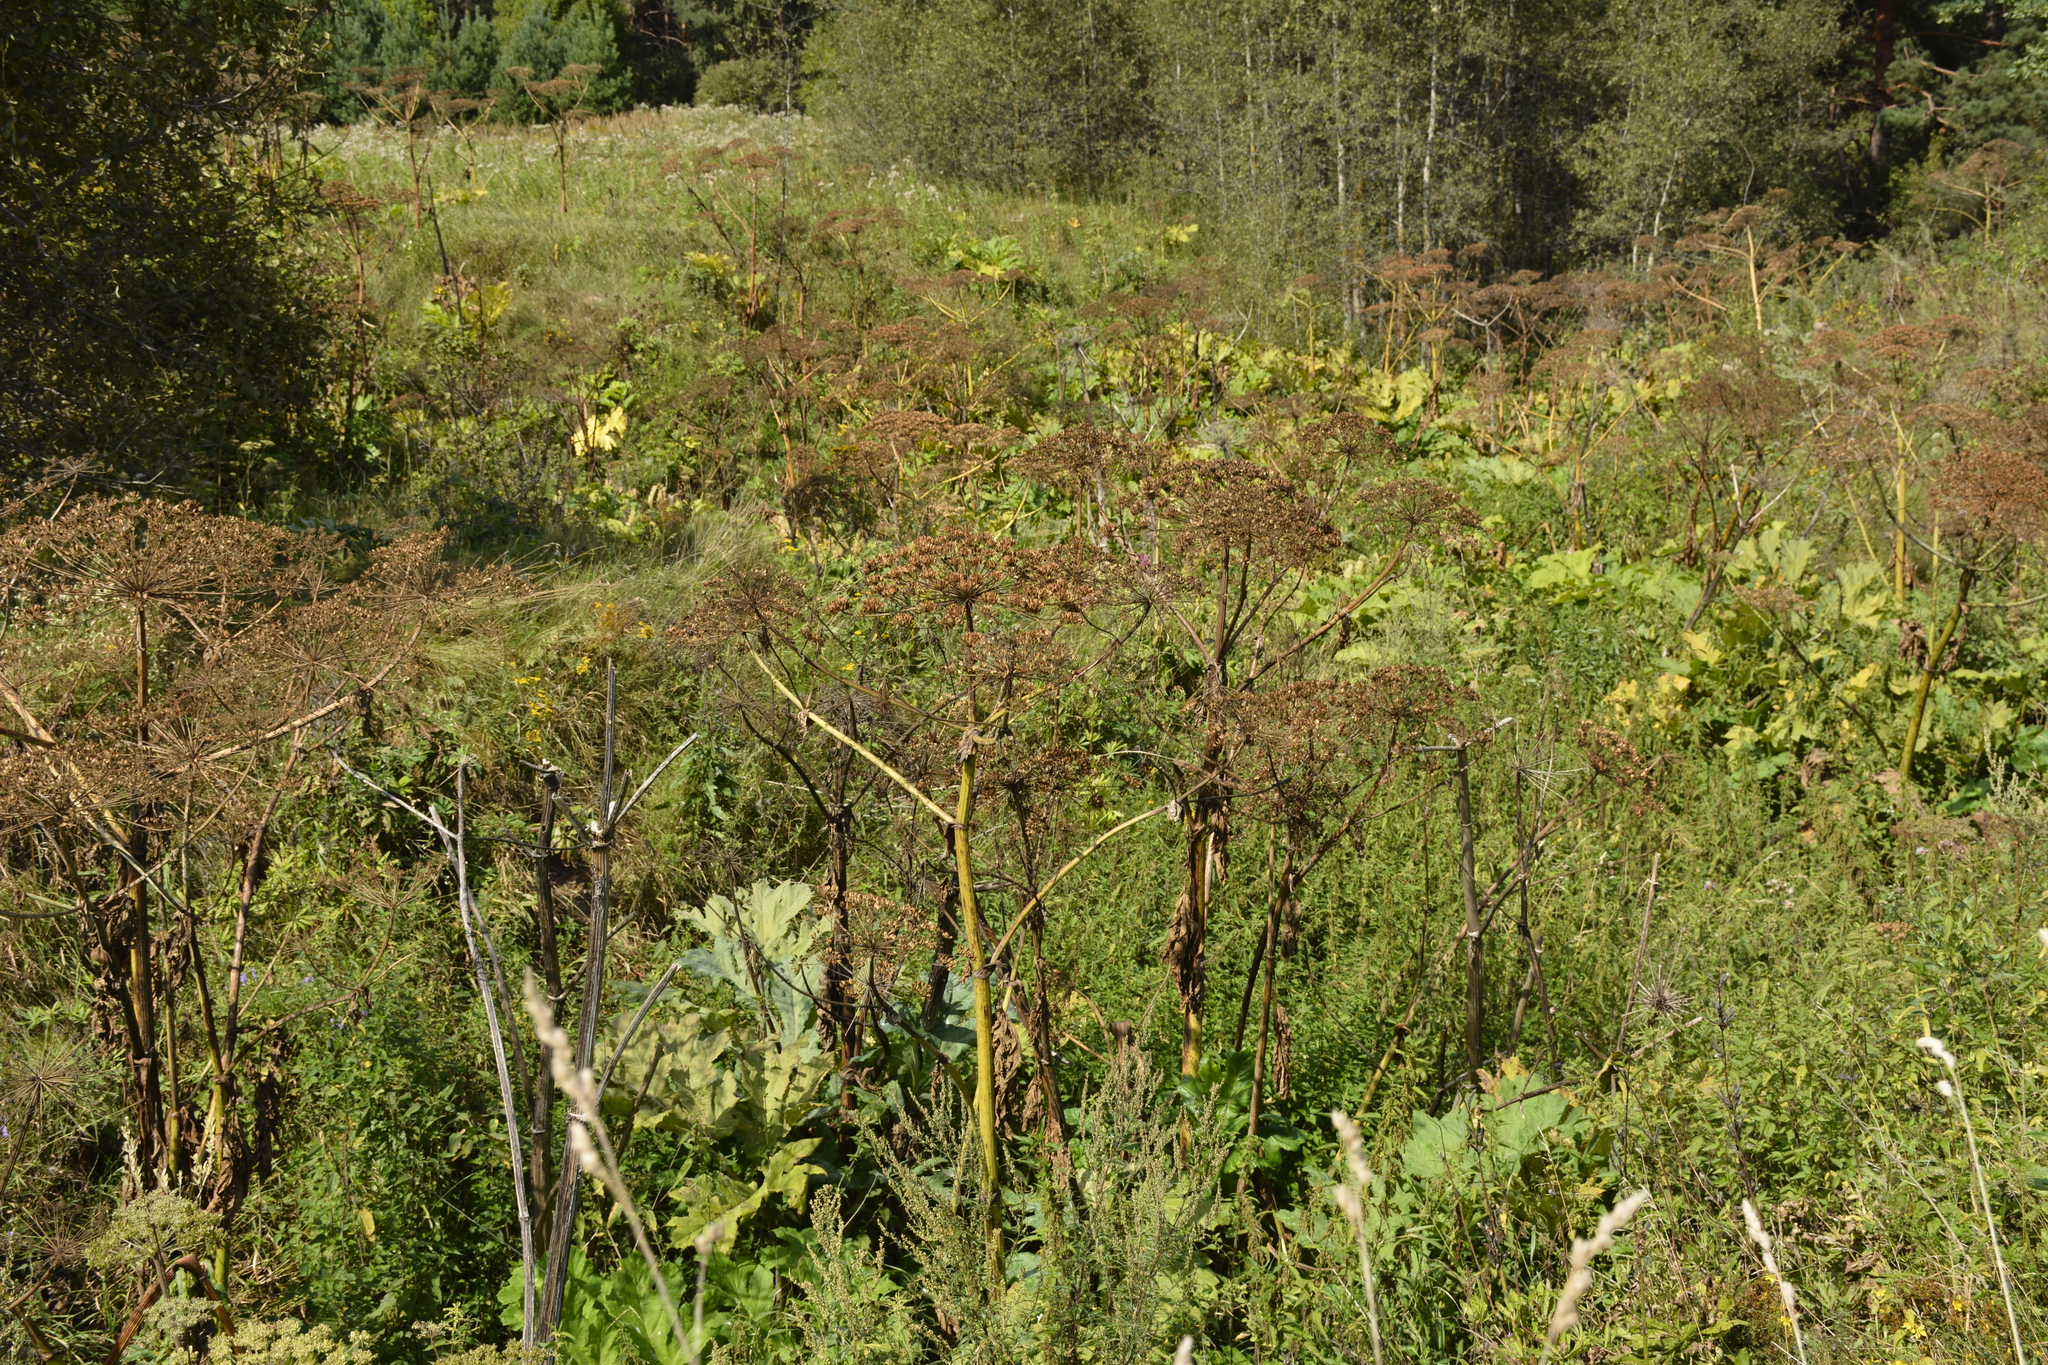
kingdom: Plantae
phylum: Tracheophyta
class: Magnoliopsida
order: Apiales
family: Apiaceae
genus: Heracleum
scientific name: Heracleum sosnowskyi
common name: Sosnowsky's hogweed
